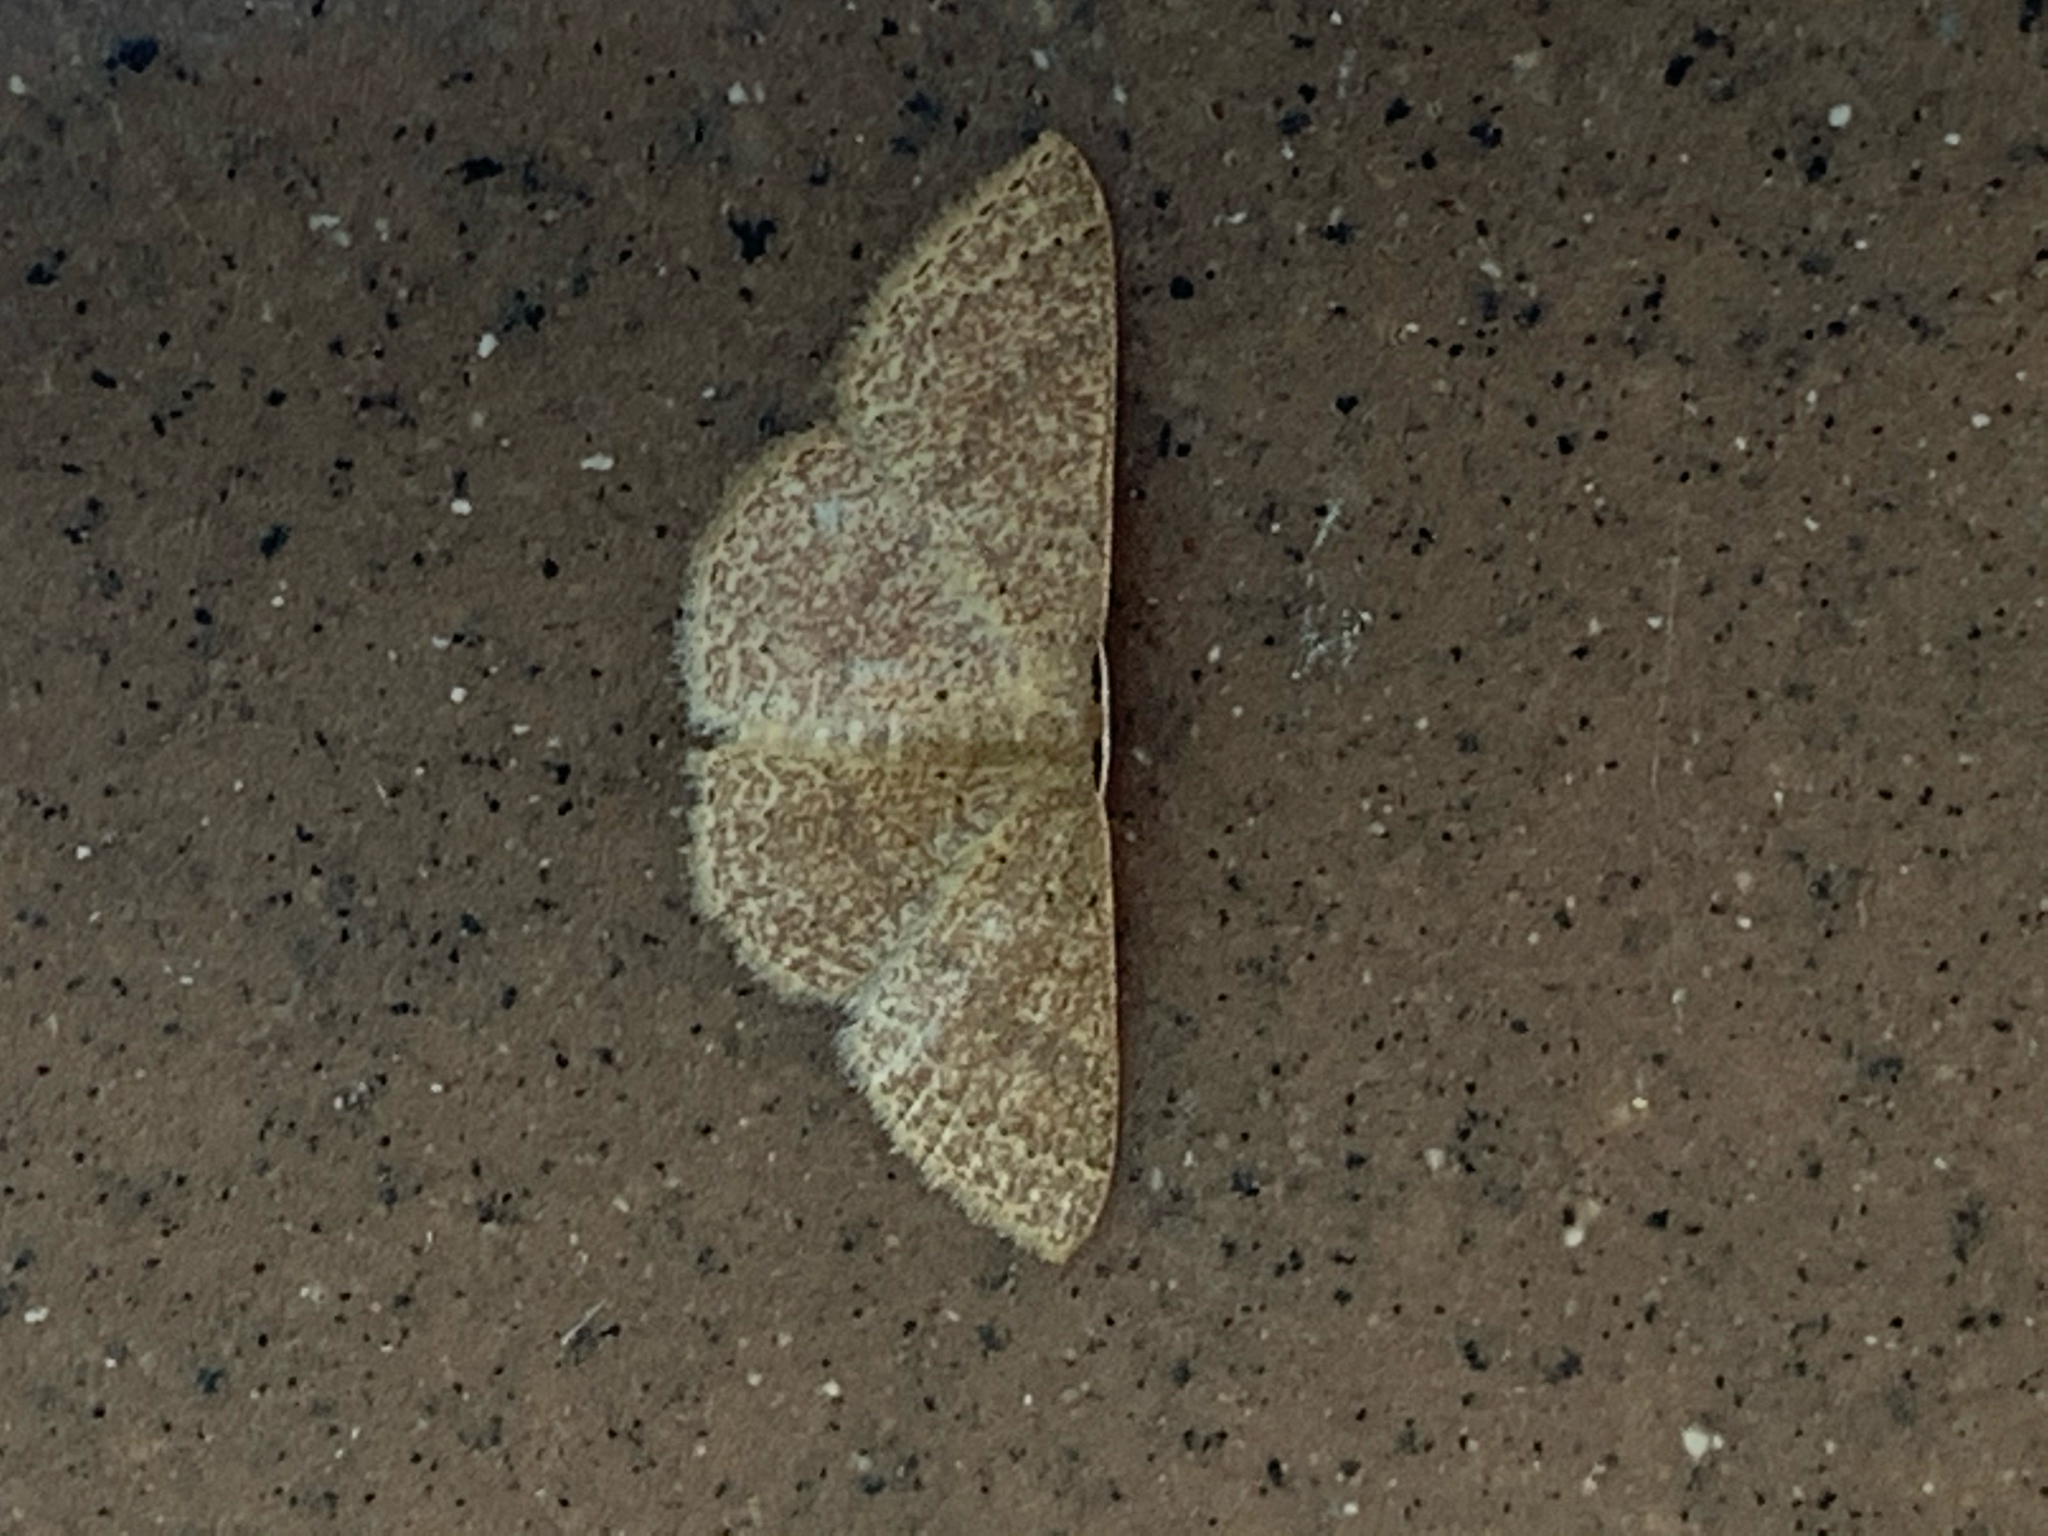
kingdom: Animalia
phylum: Arthropoda
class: Insecta
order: Lepidoptera
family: Geometridae
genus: Pleuroprucha
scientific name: Pleuroprucha insulsaria
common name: Common tan wave
